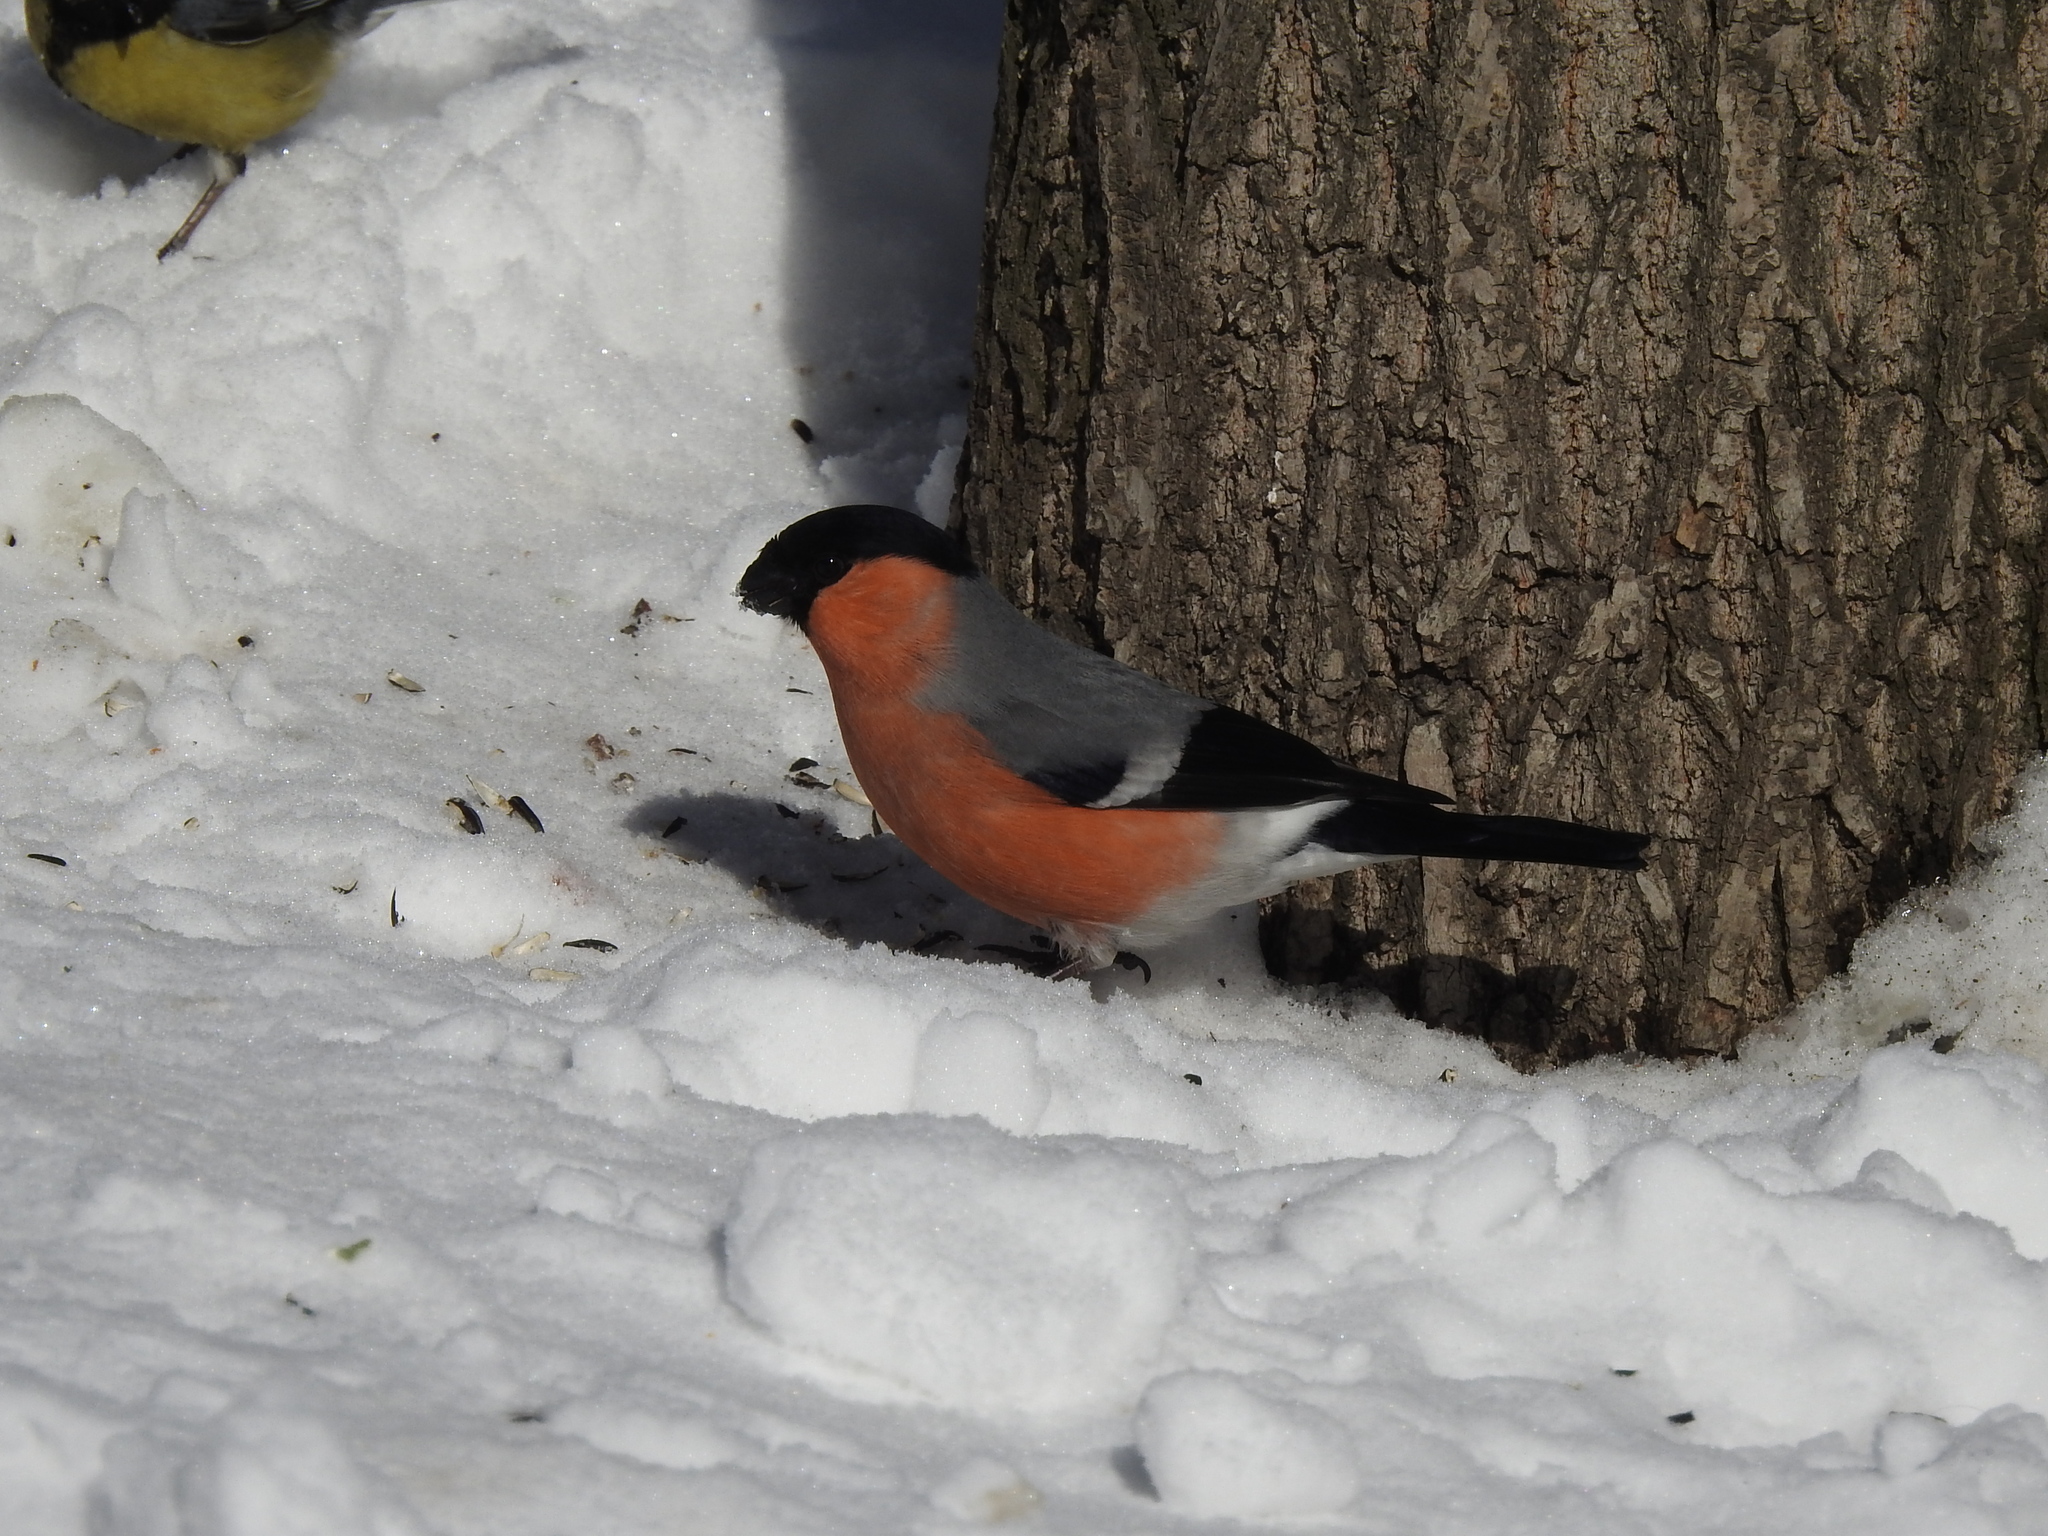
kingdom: Animalia
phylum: Chordata
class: Aves
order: Passeriformes
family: Fringillidae
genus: Pyrrhula
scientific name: Pyrrhula pyrrhula
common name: Eurasian bullfinch
